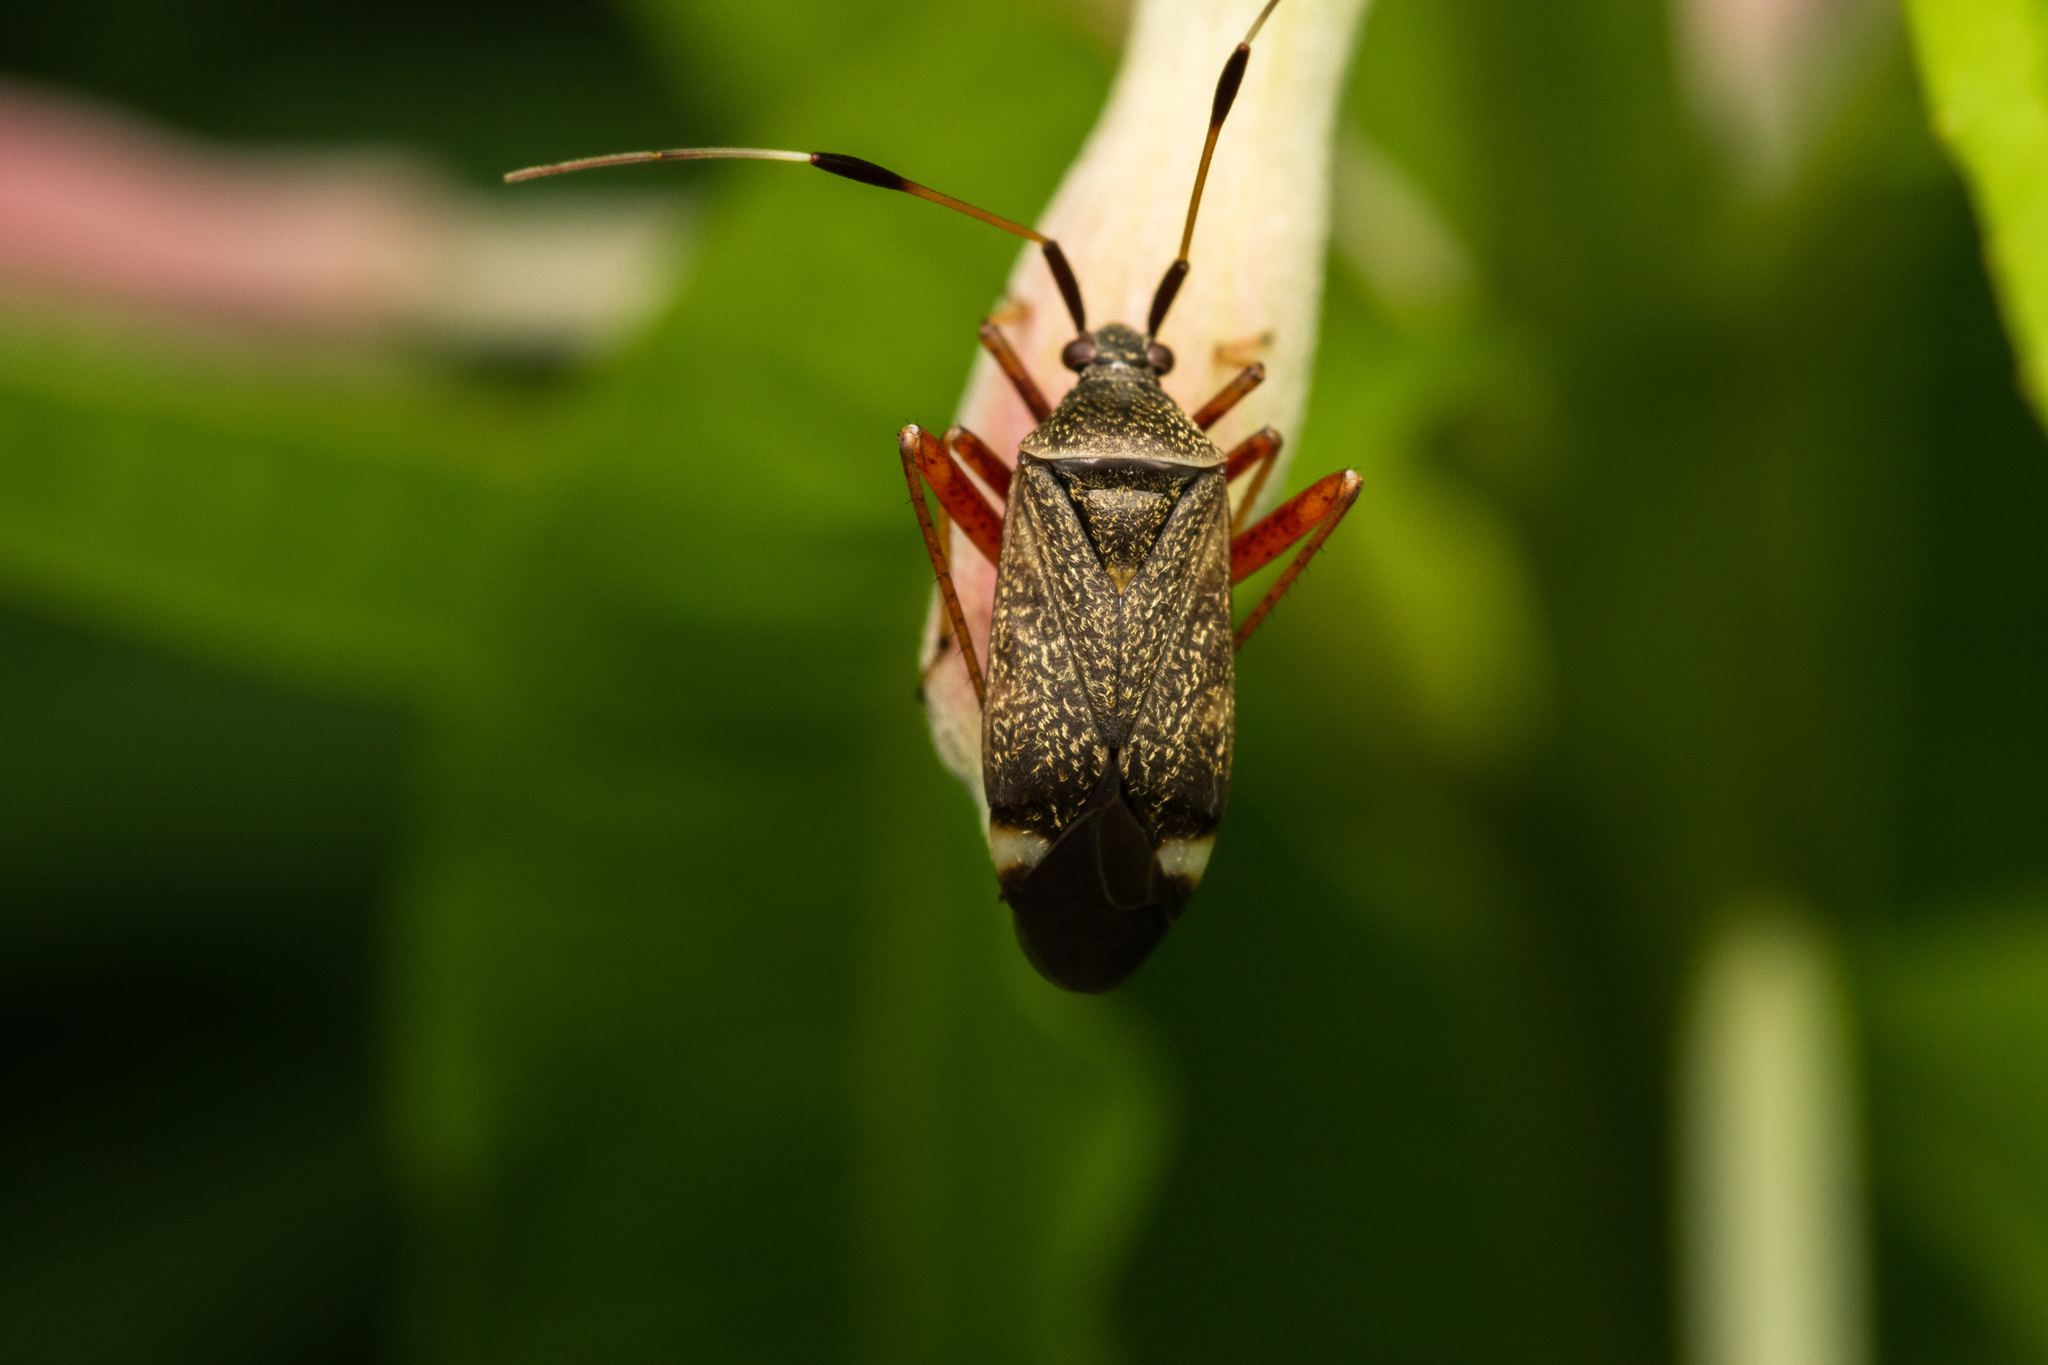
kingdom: Animalia
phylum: Arthropoda
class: Insecta
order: Hemiptera
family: Miridae
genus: Closterotomus
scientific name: Closterotomus biclavatus
